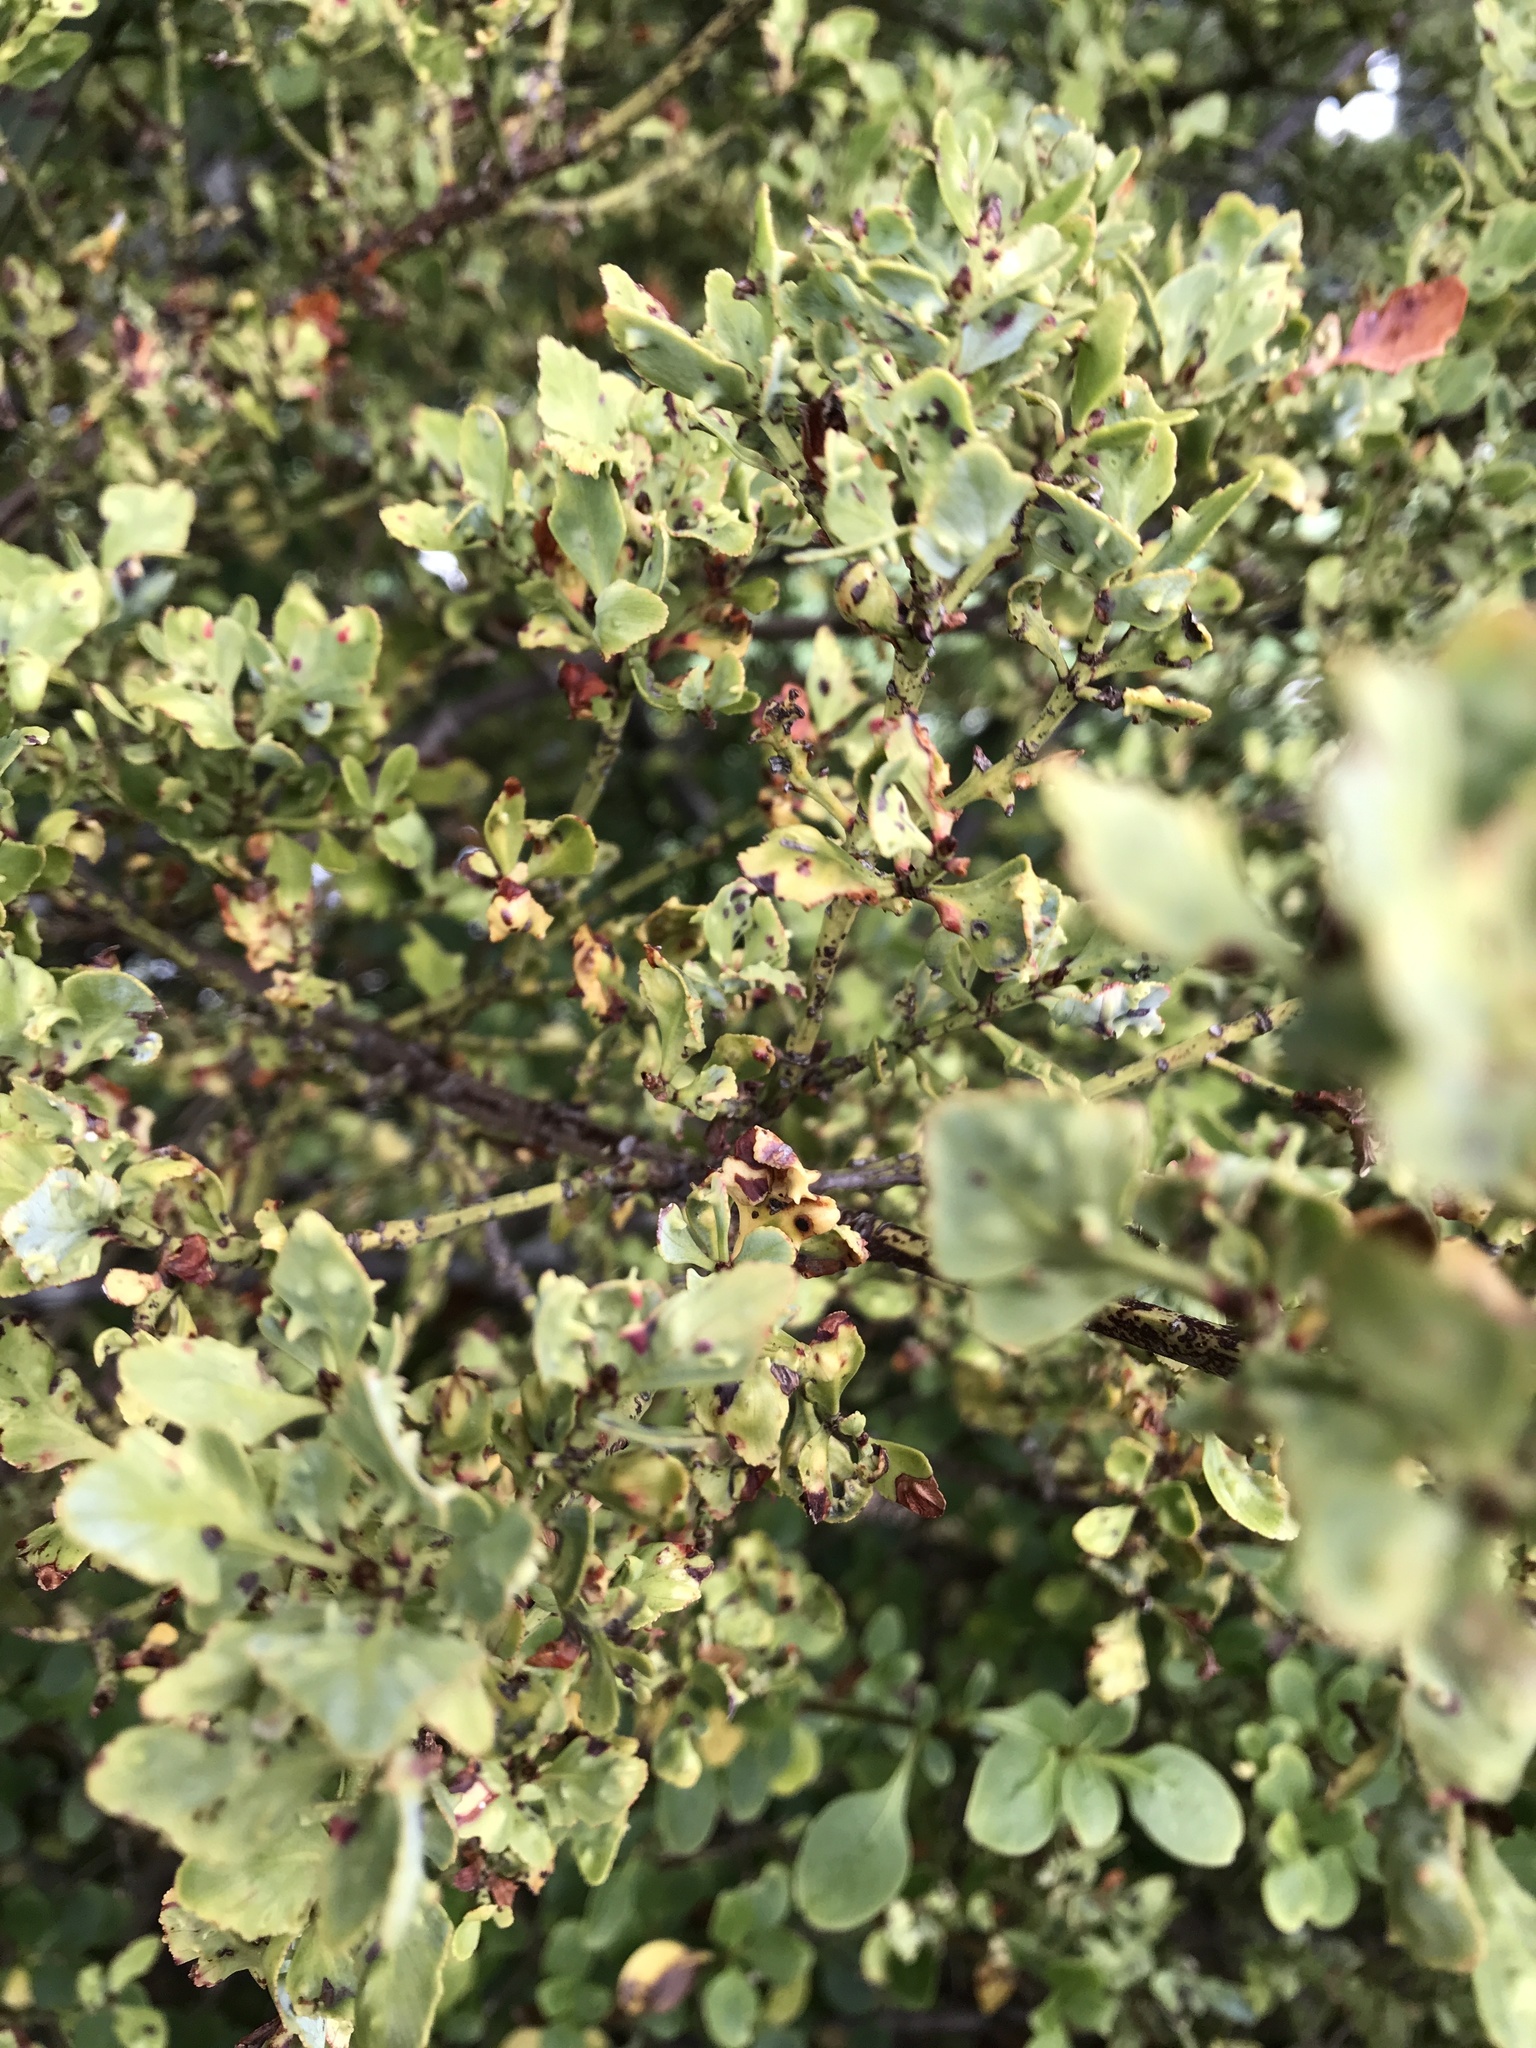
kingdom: Plantae
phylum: Tracheophyta
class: Pinopsida
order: Pinales
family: Phyllocladaceae
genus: Phyllocladus
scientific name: Phyllocladus trichomanoides
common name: Celery pine
